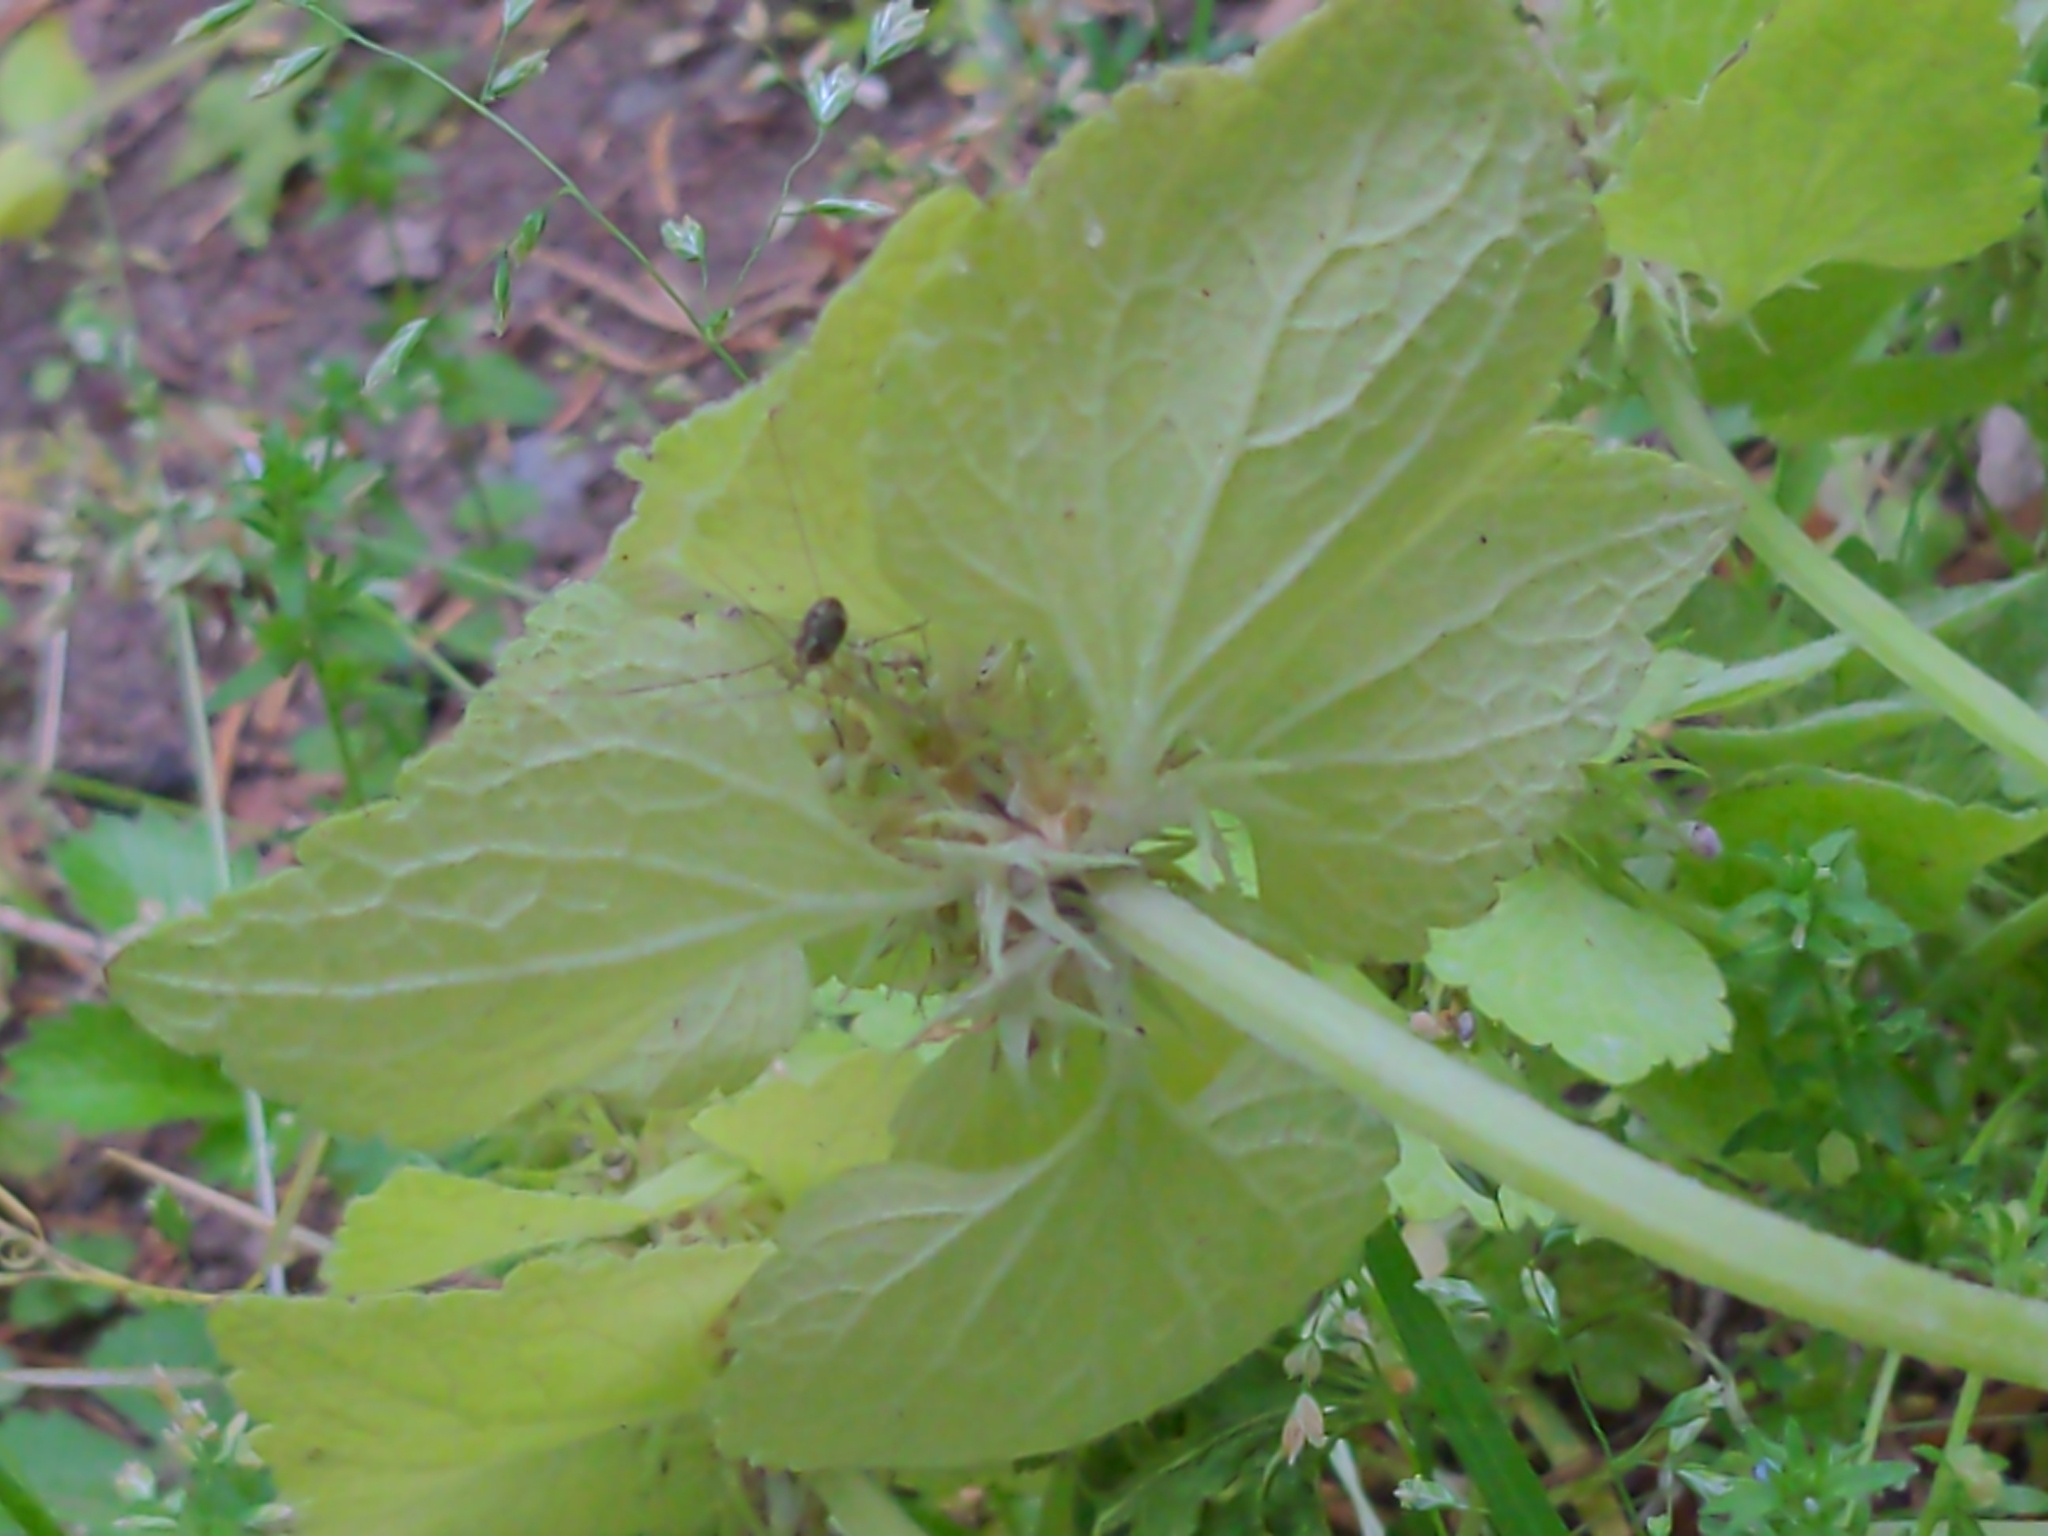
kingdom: Plantae
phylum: Tracheophyta
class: Magnoliopsida
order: Lamiales
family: Lamiaceae
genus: Lamium
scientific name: Lamium purpureum
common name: Red dead-nettle
